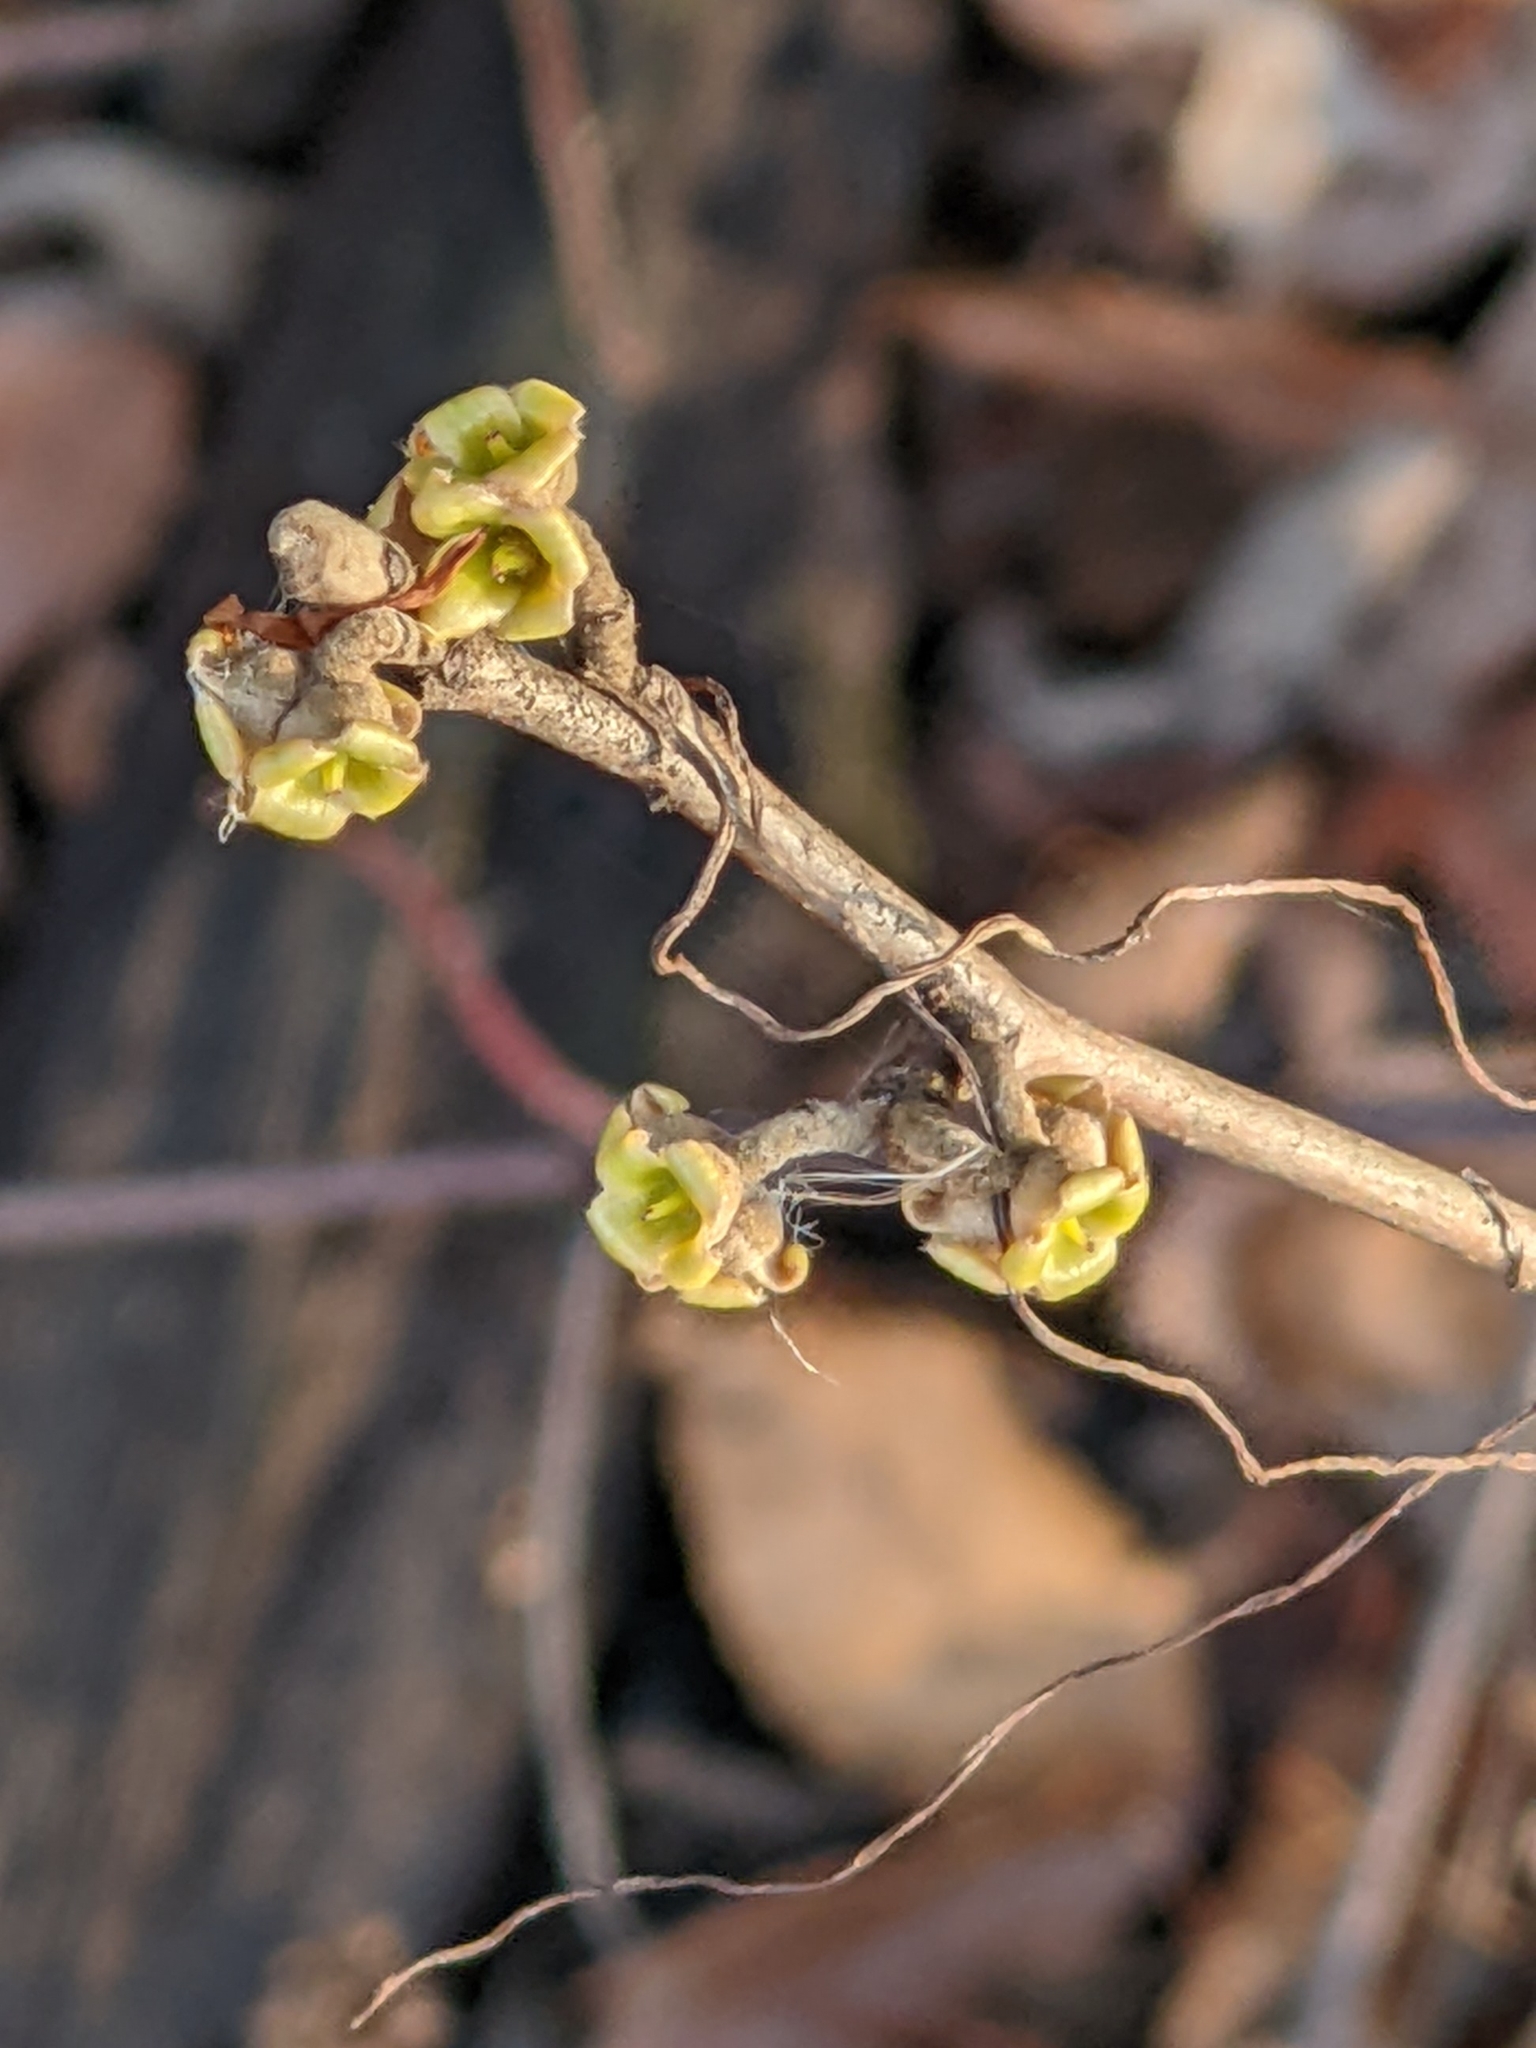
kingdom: Plantae
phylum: Tracheophyta
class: Magnoliopsida
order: Saxifragales
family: Hamamelidaceae
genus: Hamamelis
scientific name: Hamamelis virginiana
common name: Witch-hazel
